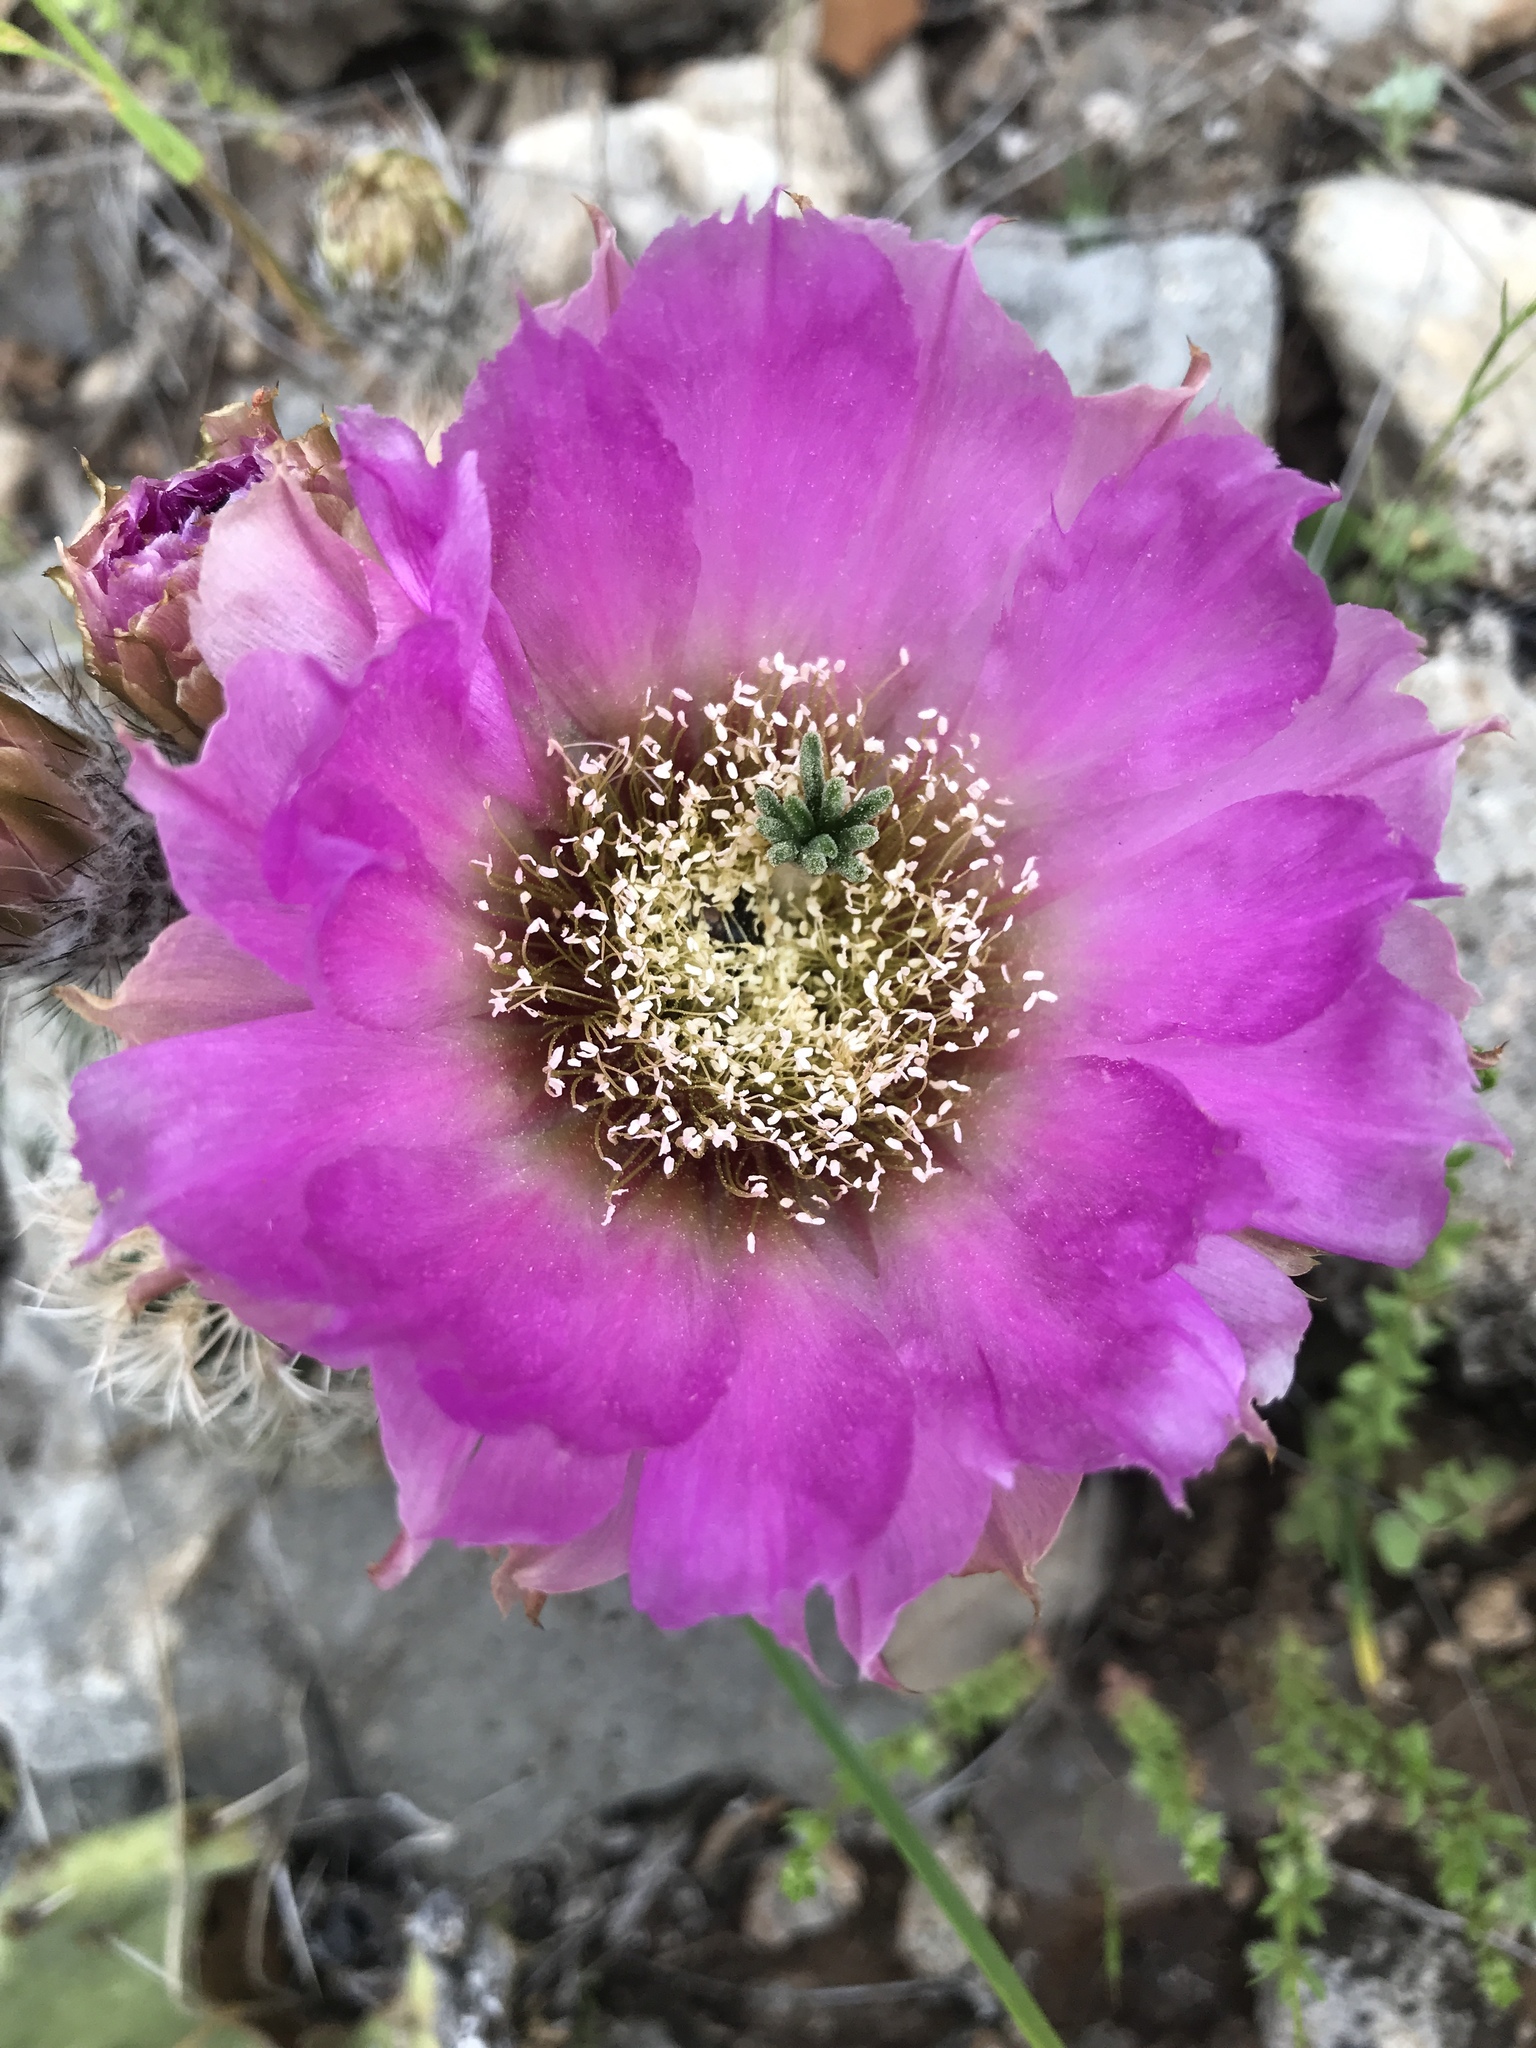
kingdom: Plantae
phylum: Tracheophyta
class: Magnoliopsida
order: Caryophyllales
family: Cactaceae
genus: Echinocereus
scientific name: Echinocereus reichenbachii
